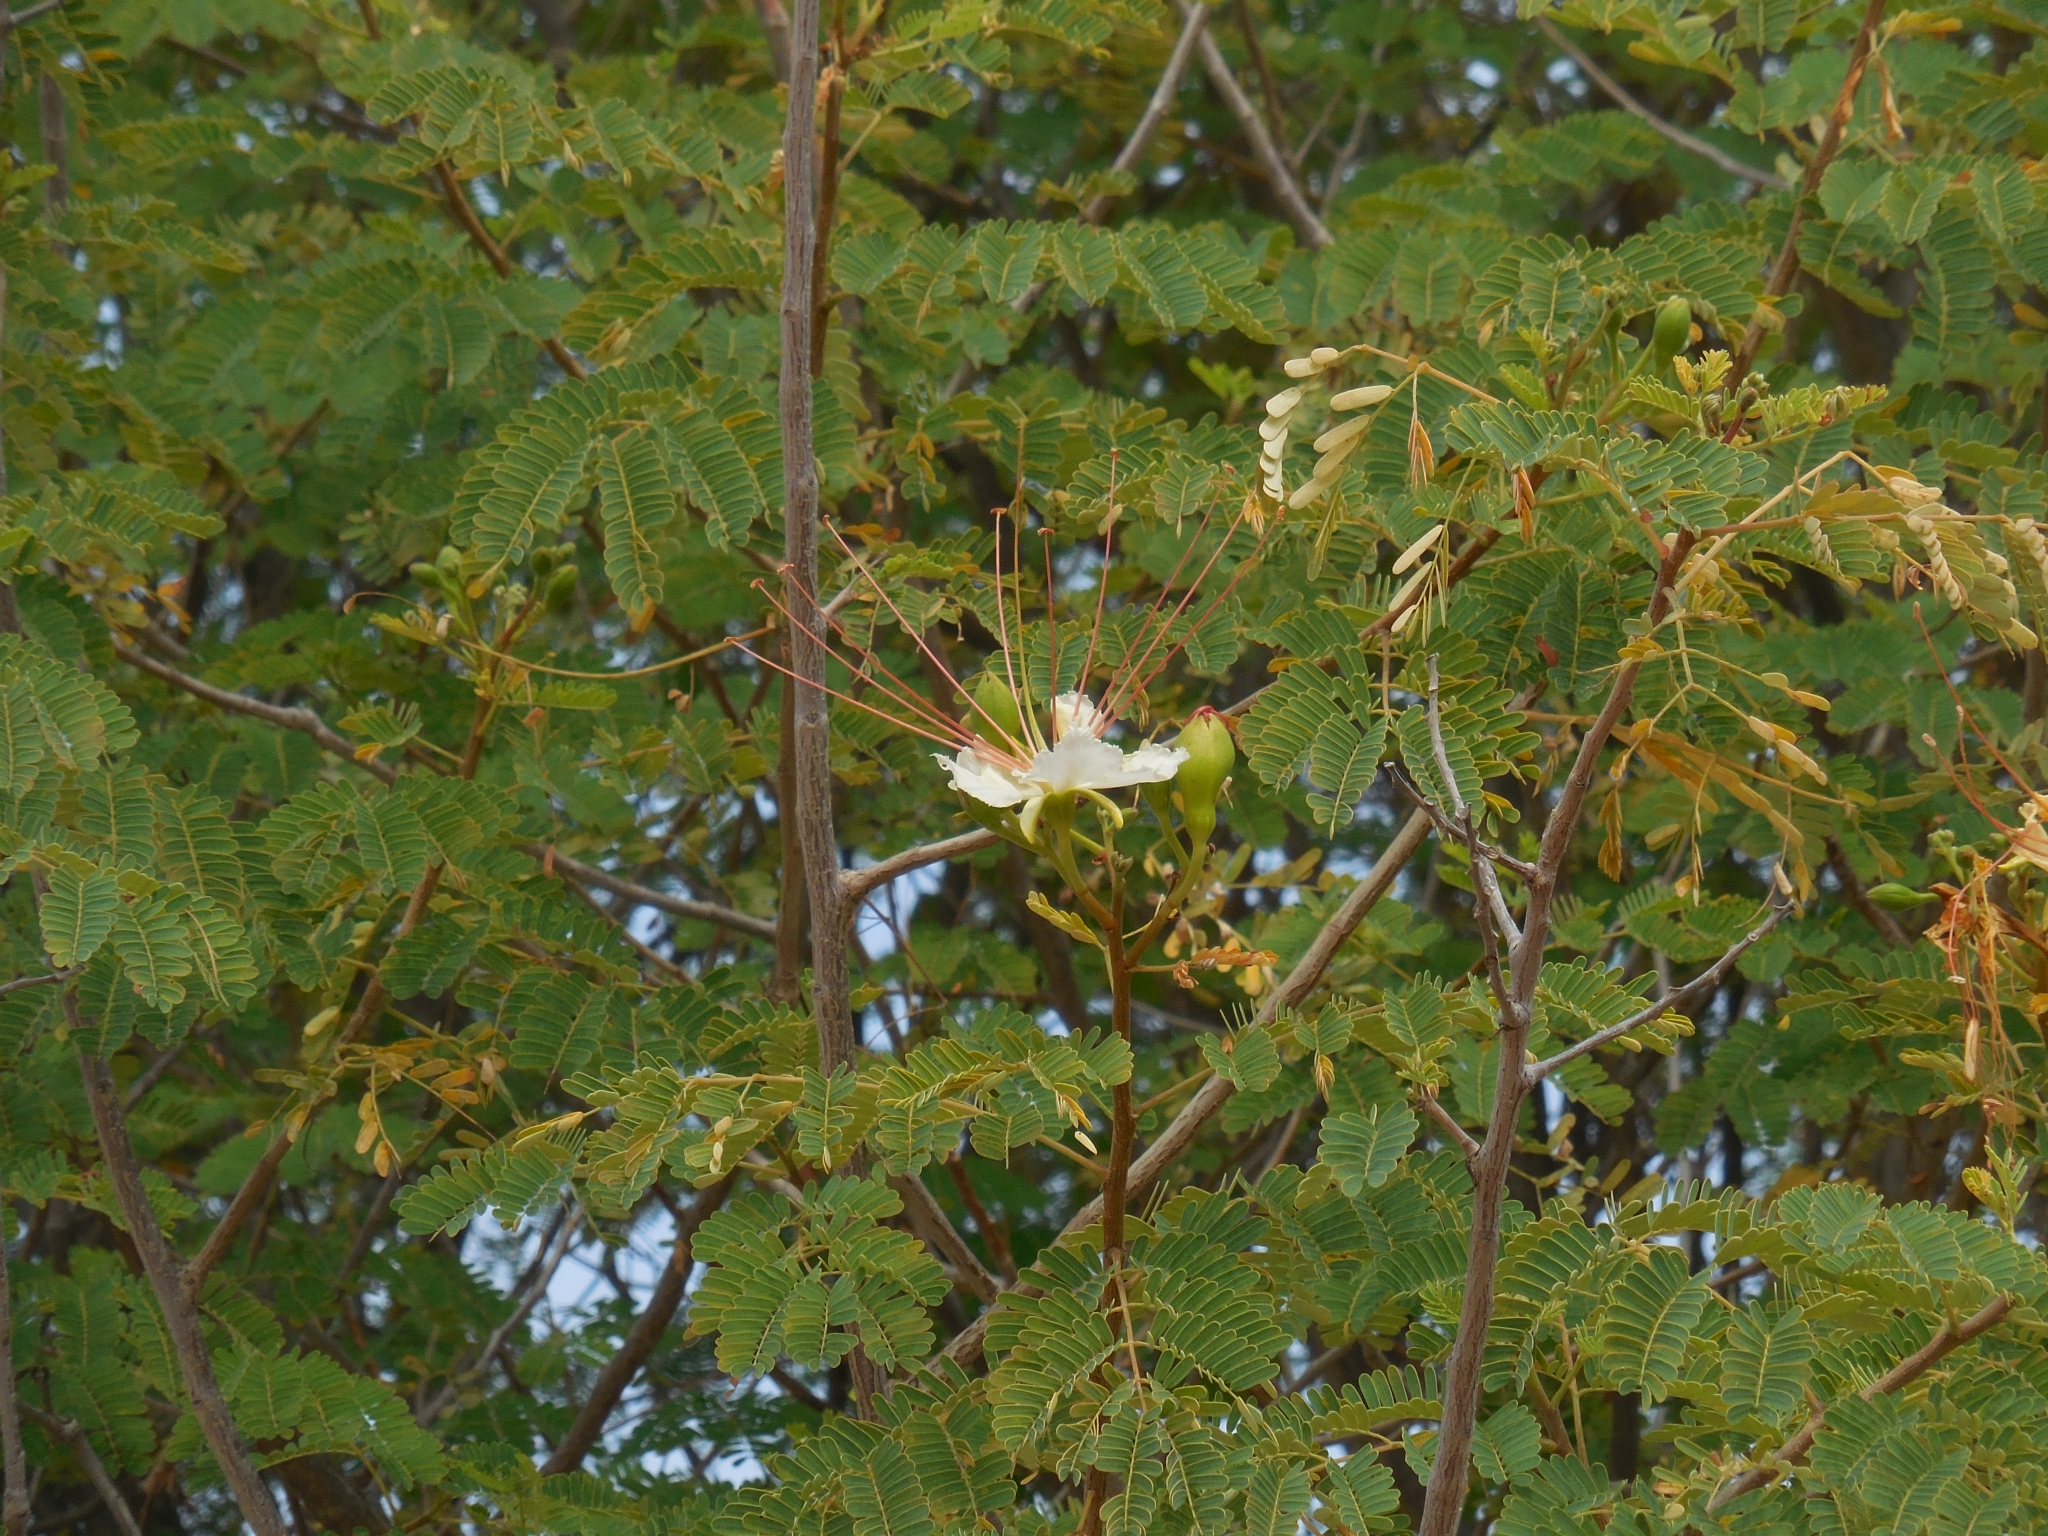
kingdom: Plantae
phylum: Tracheophyta
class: Magnoliopsida
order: Fabales
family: Fabaceae
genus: Cenostigma
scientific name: Cenostigma eriostachys
